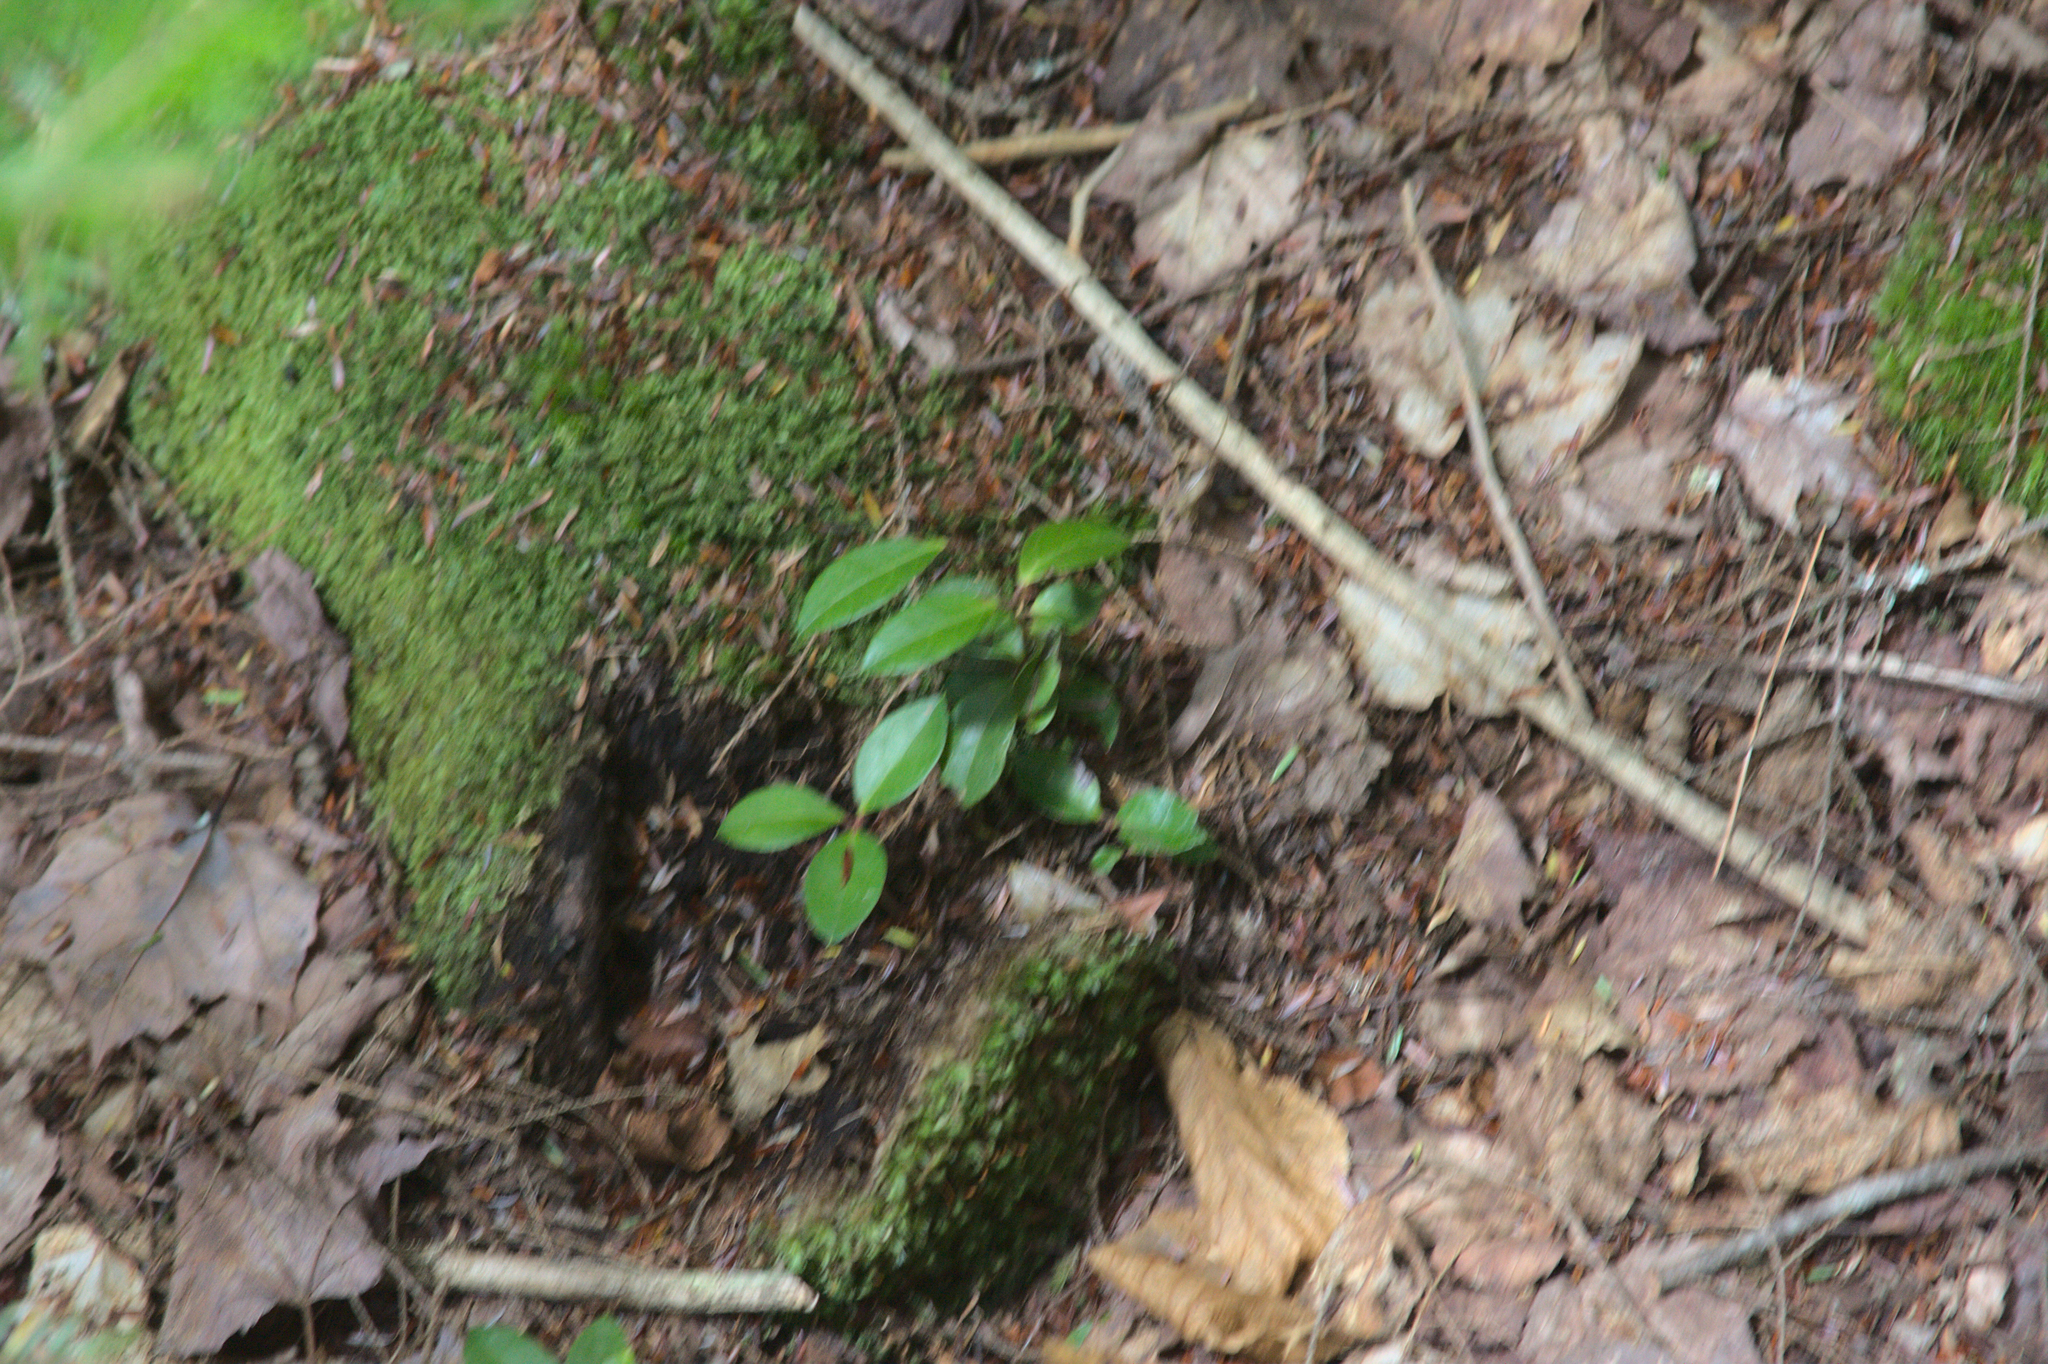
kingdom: Plantae
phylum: Tracheophyta
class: Magnoliopsida
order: Ericales
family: Ericaceae
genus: Gaultheria
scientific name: Gaultheria procumbens
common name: Checkerberry
